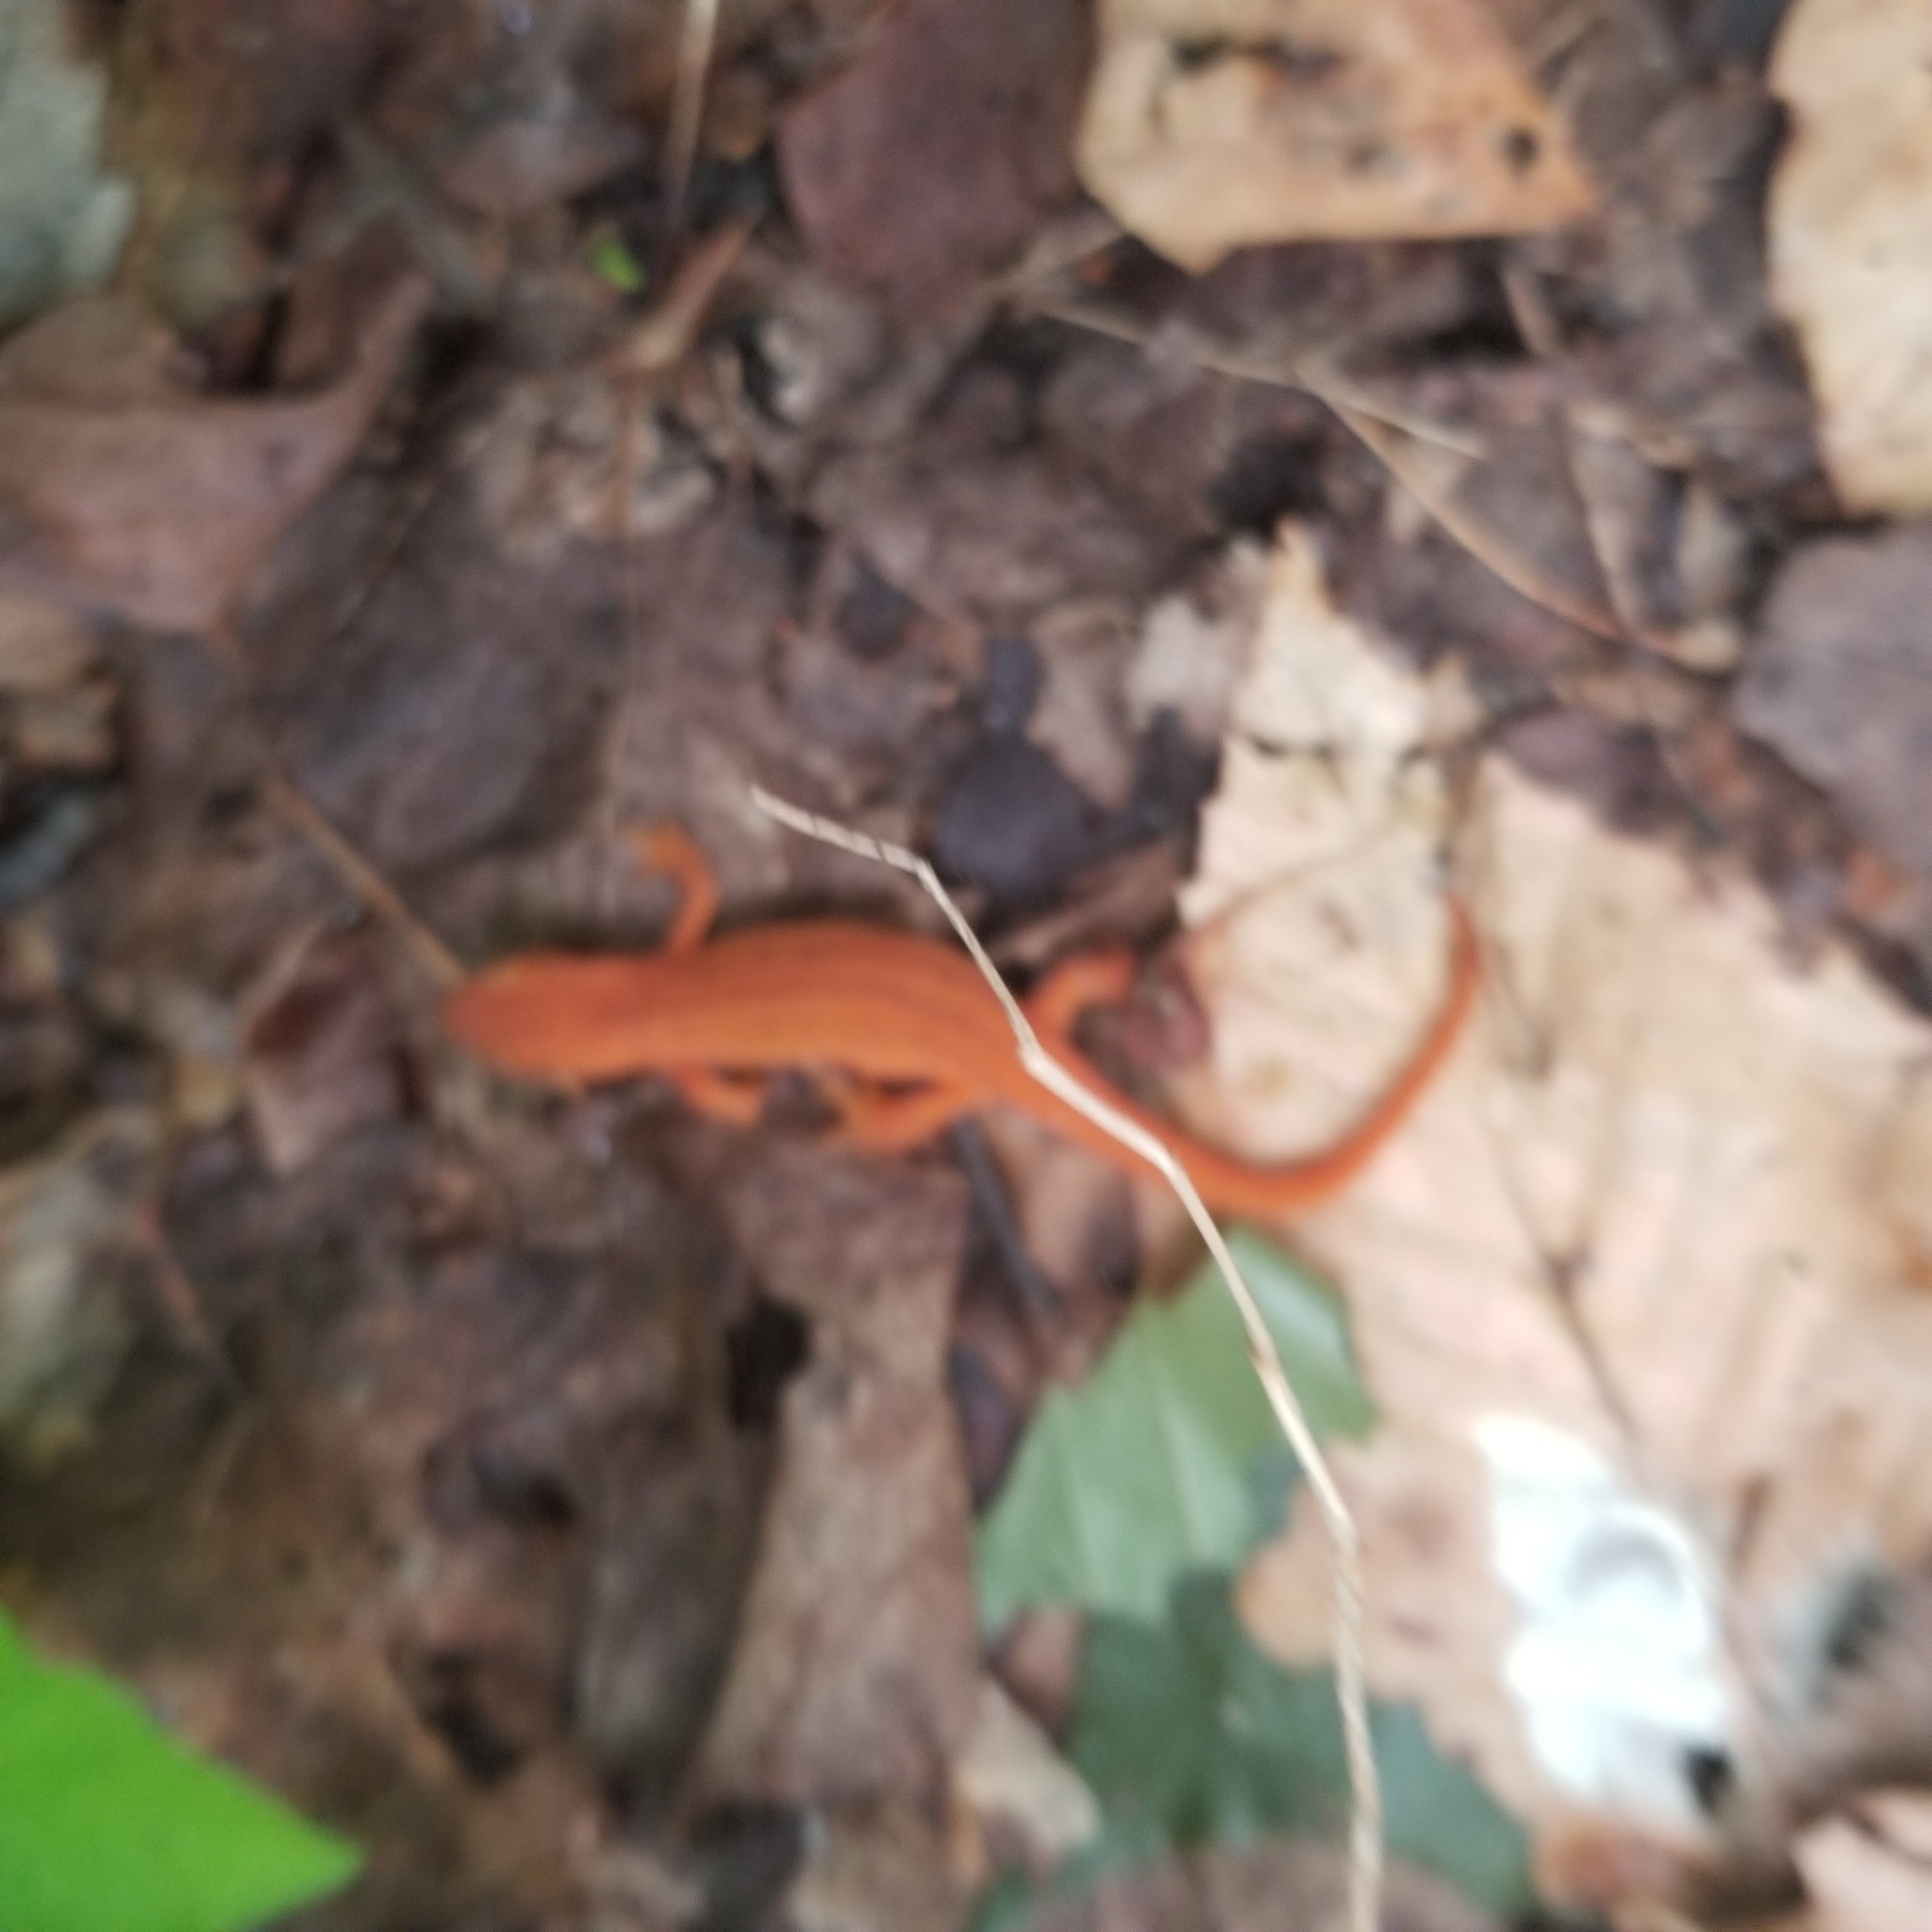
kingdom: Animalia
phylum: Chordata
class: Amphibia
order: Caudata
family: Salamandridae
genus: Notophthalmus
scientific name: Notophthalmus viridescens
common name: Eastern newt
